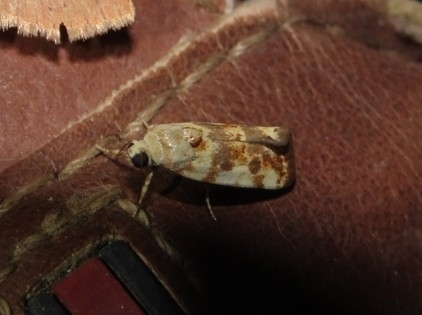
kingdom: Animalia
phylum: Arthropoda
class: Insecta
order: Lepidoptera
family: Noctuidae
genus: Acontia
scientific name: Acontia obatra
